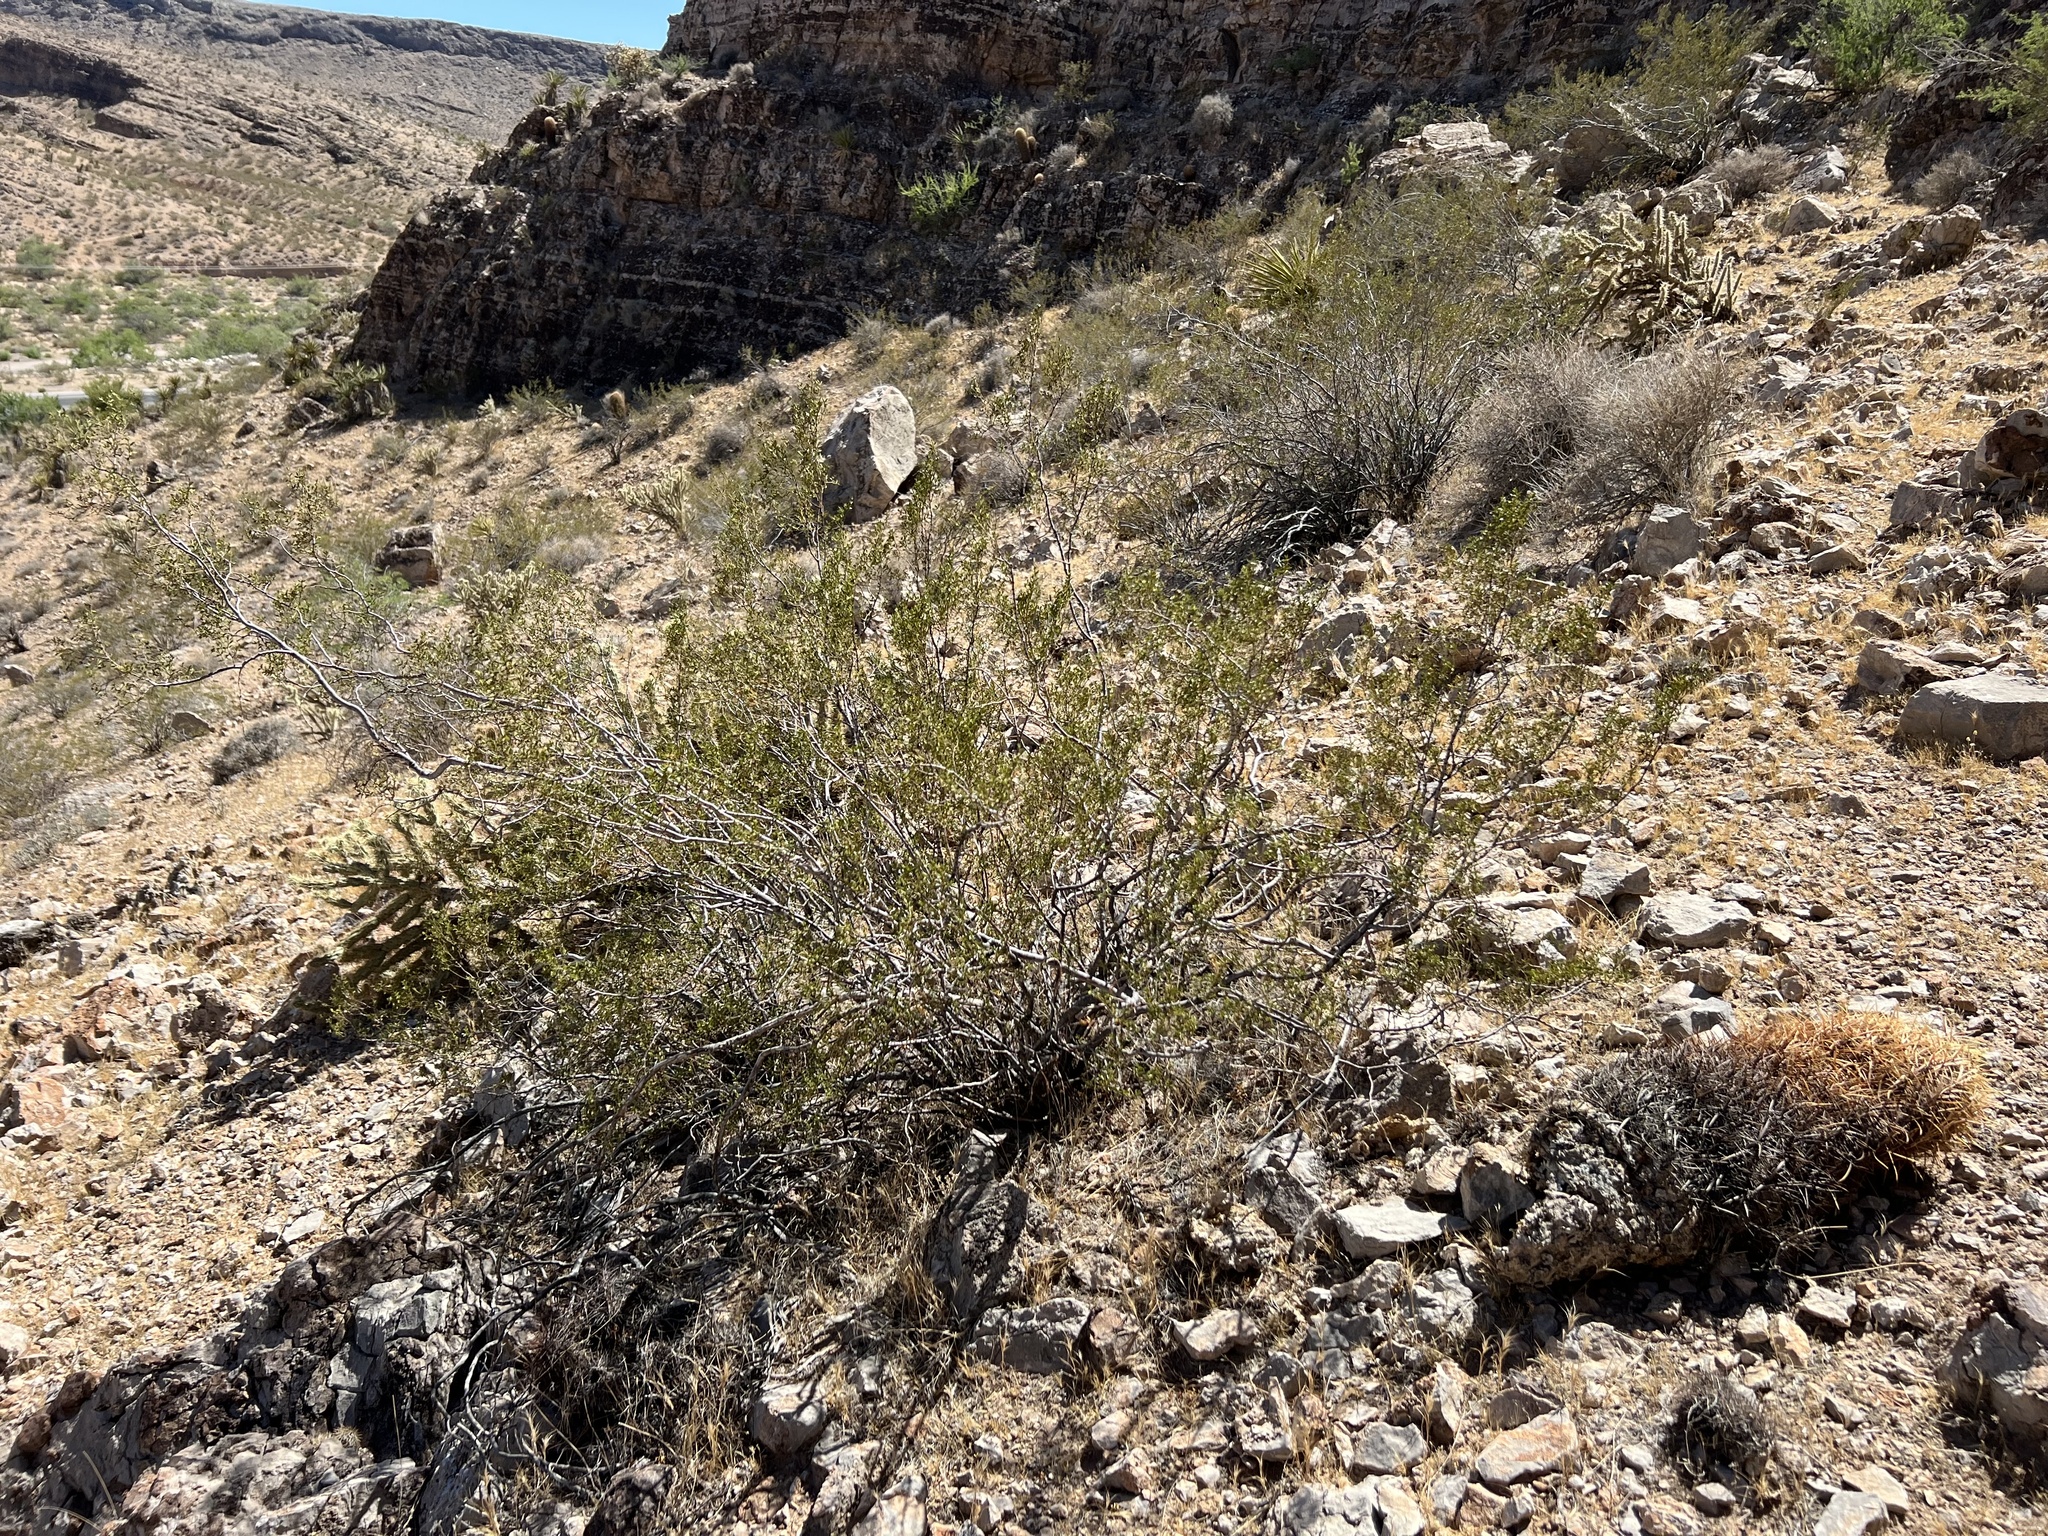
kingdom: Plantae
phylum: Tracheophyta
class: Magnoliopsida
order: Zygophyllales
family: Zygophyllaceae
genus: Larrea
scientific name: Larrea tridentata
